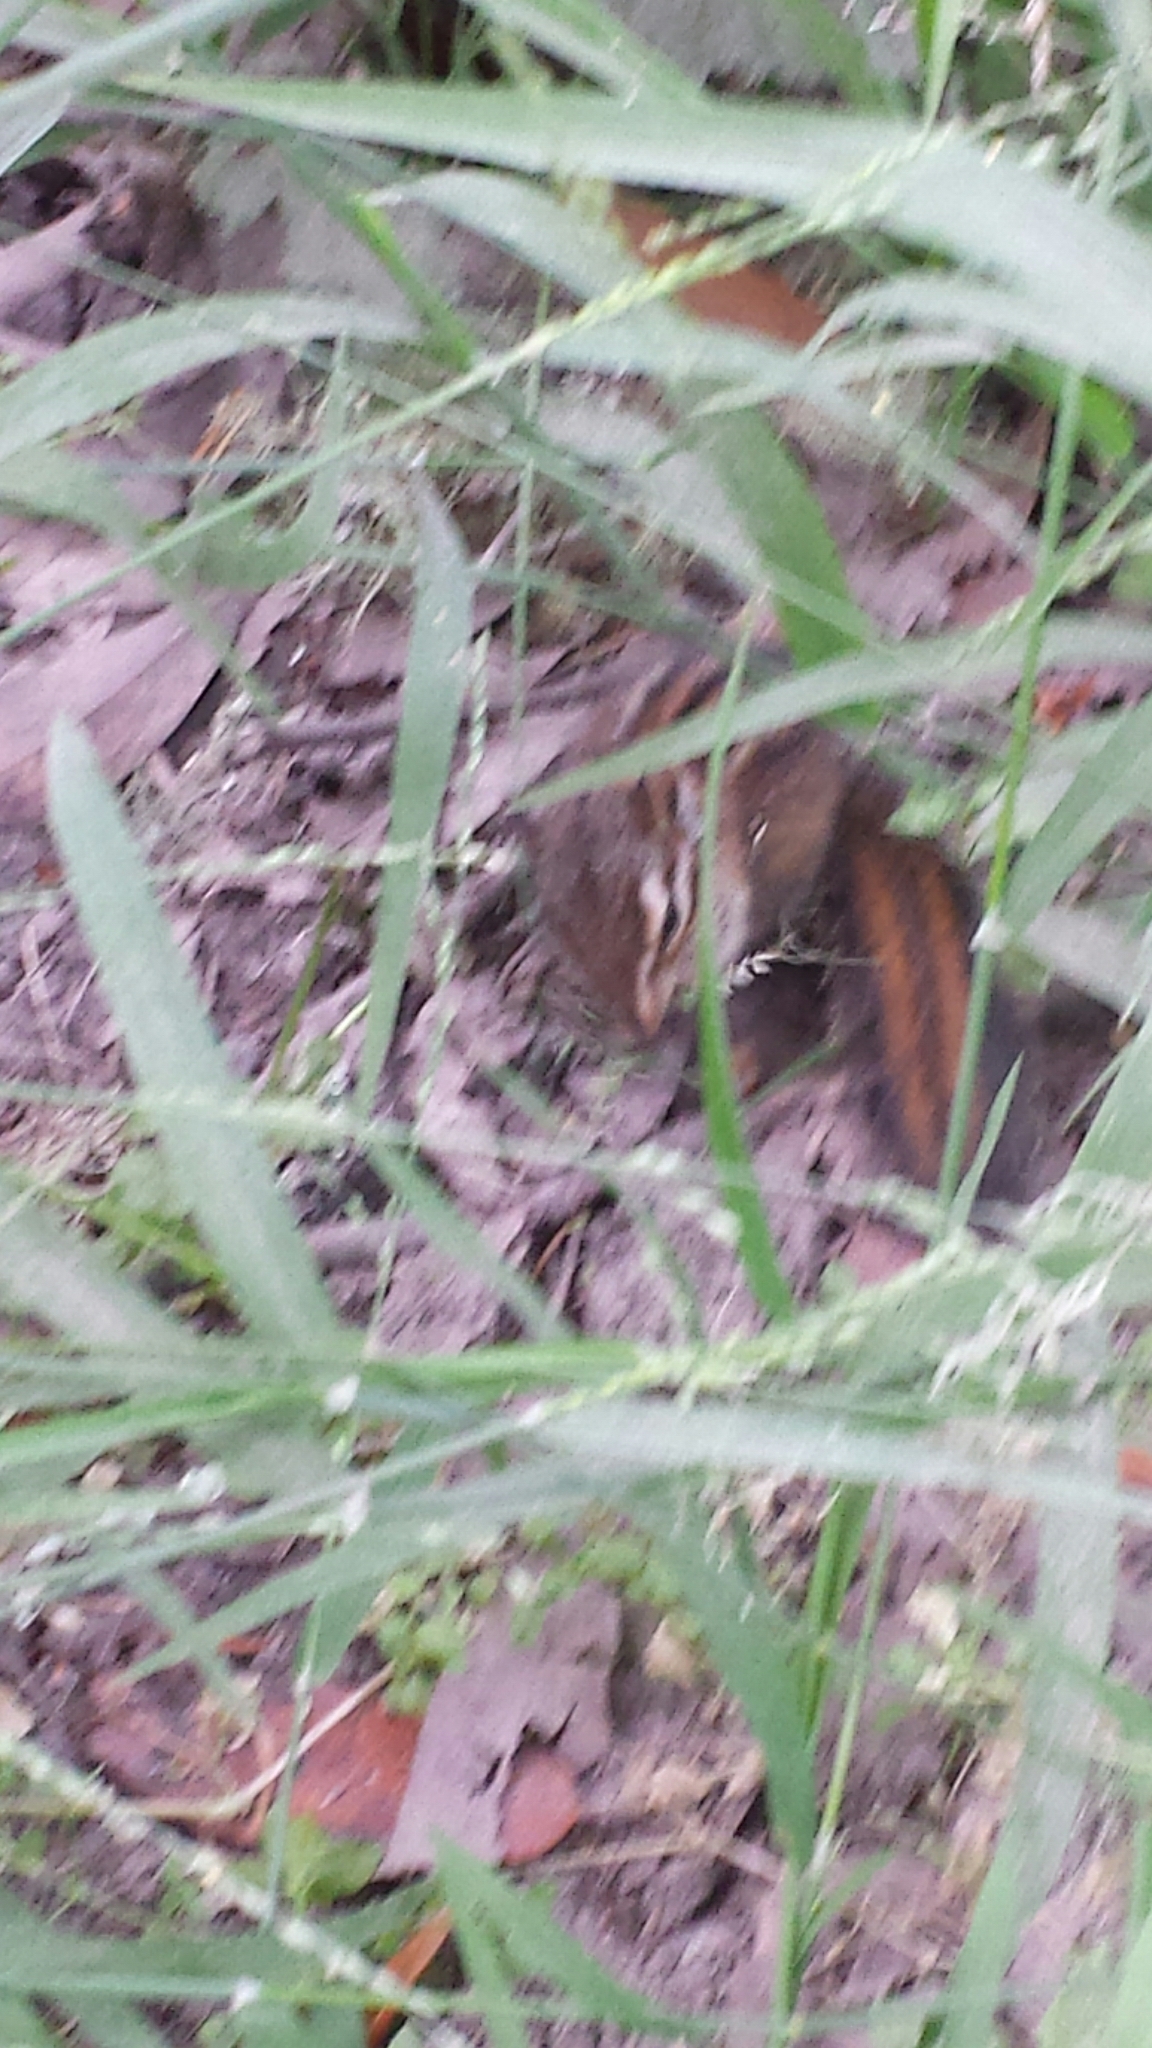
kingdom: Animalia
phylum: Chordata
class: Mammalia
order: Rodentia
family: Sciuridae
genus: Tamias
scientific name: Tamias sonomae
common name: Sonoma chipmunk
